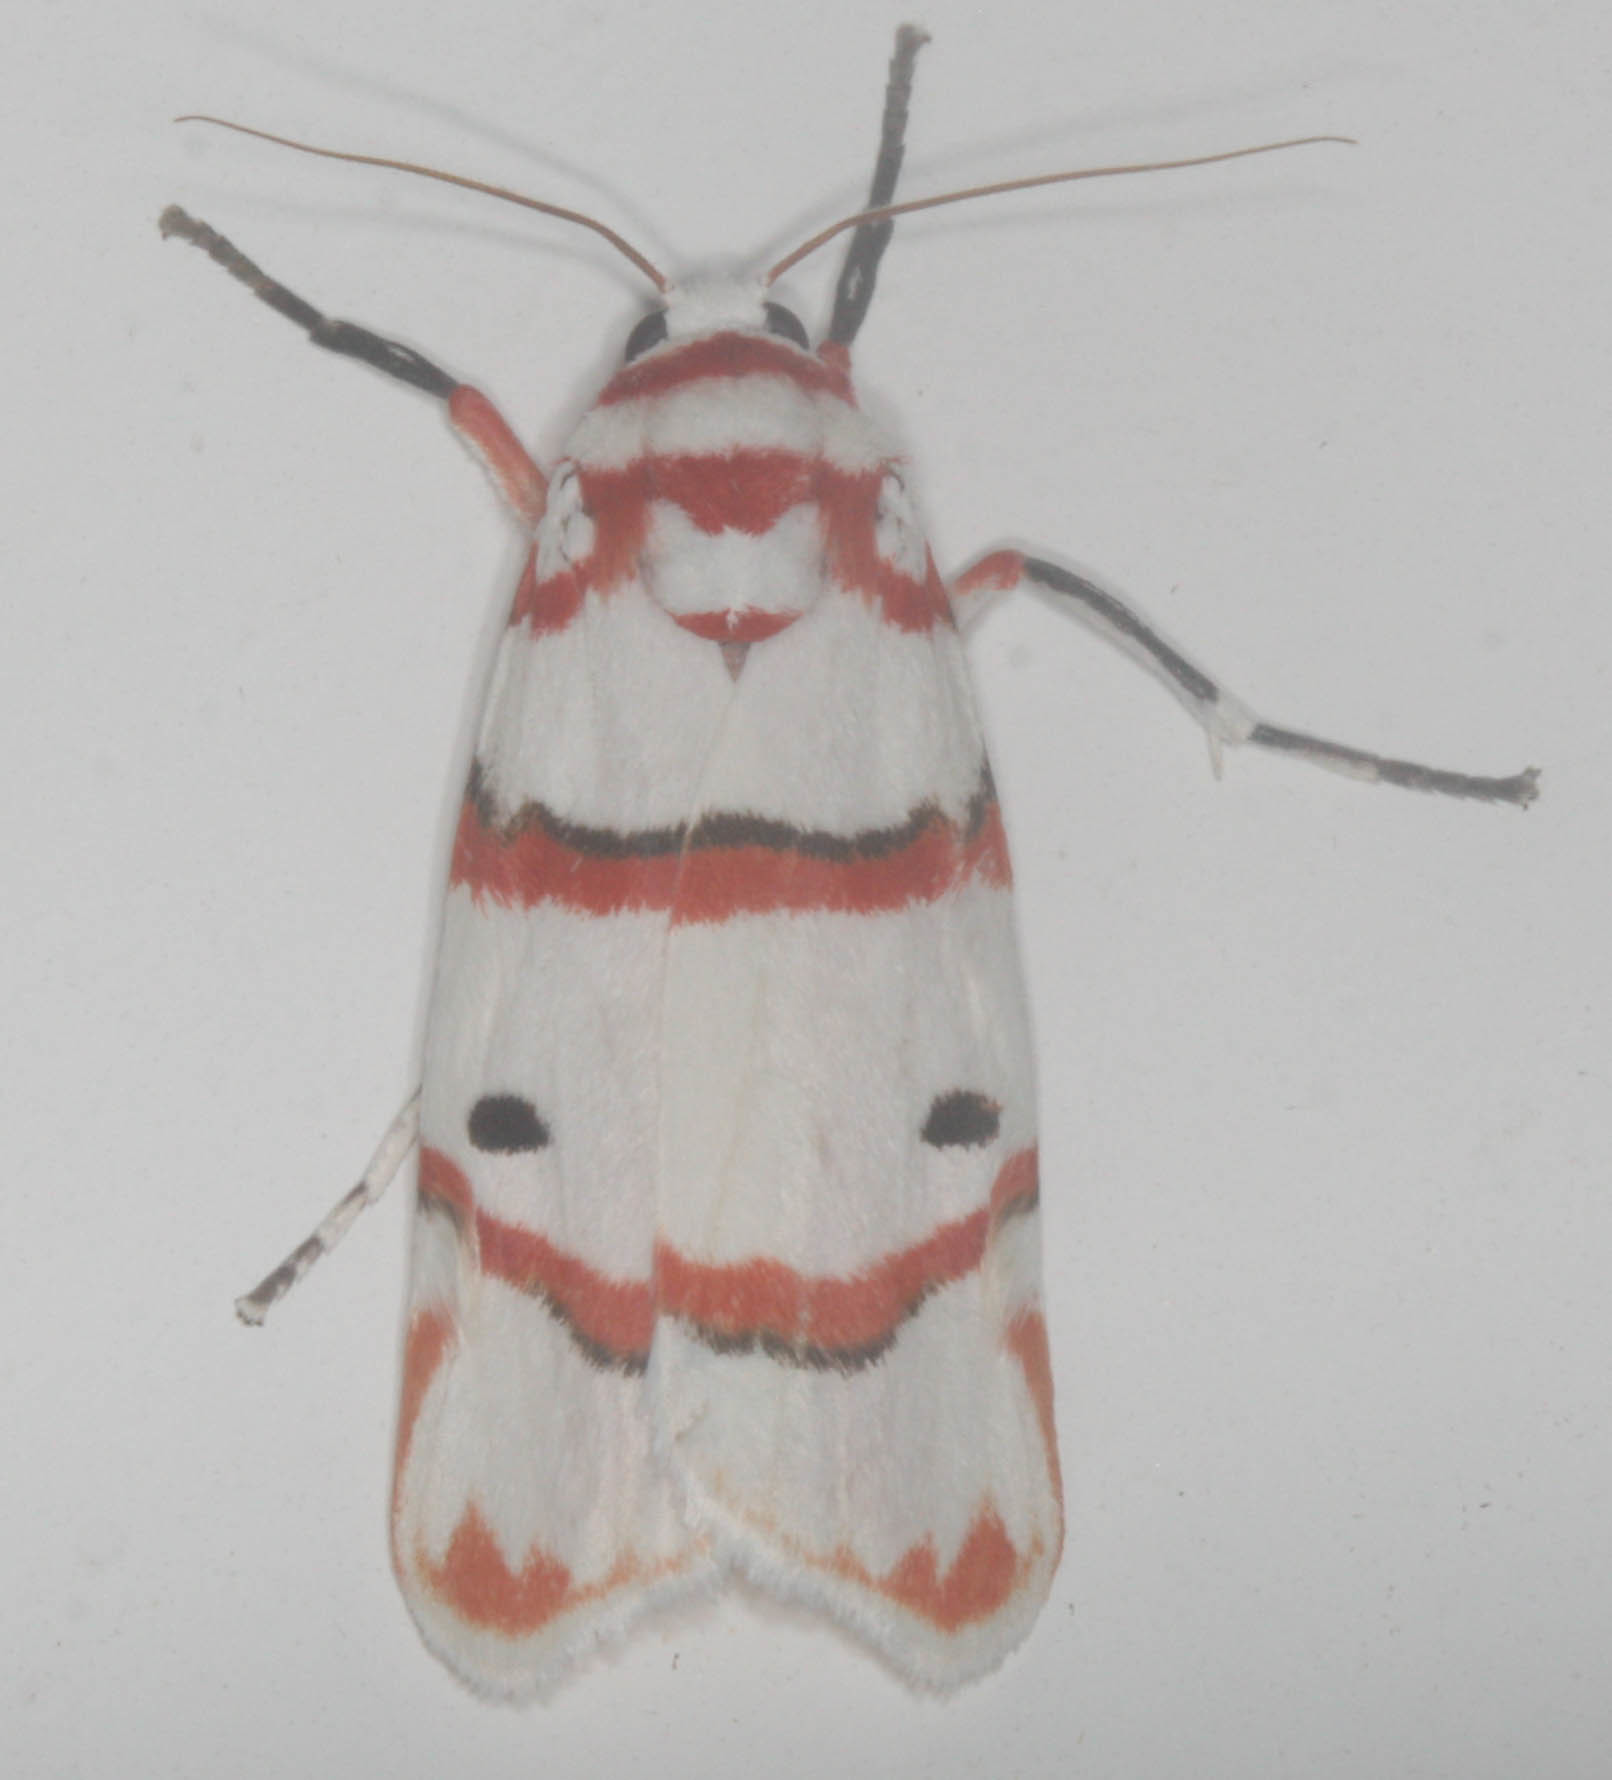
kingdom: Animalia
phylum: Arthropoda
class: Insecta
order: Lepidoptera
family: Erebidae
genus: Cyana
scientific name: Cyana perornata
